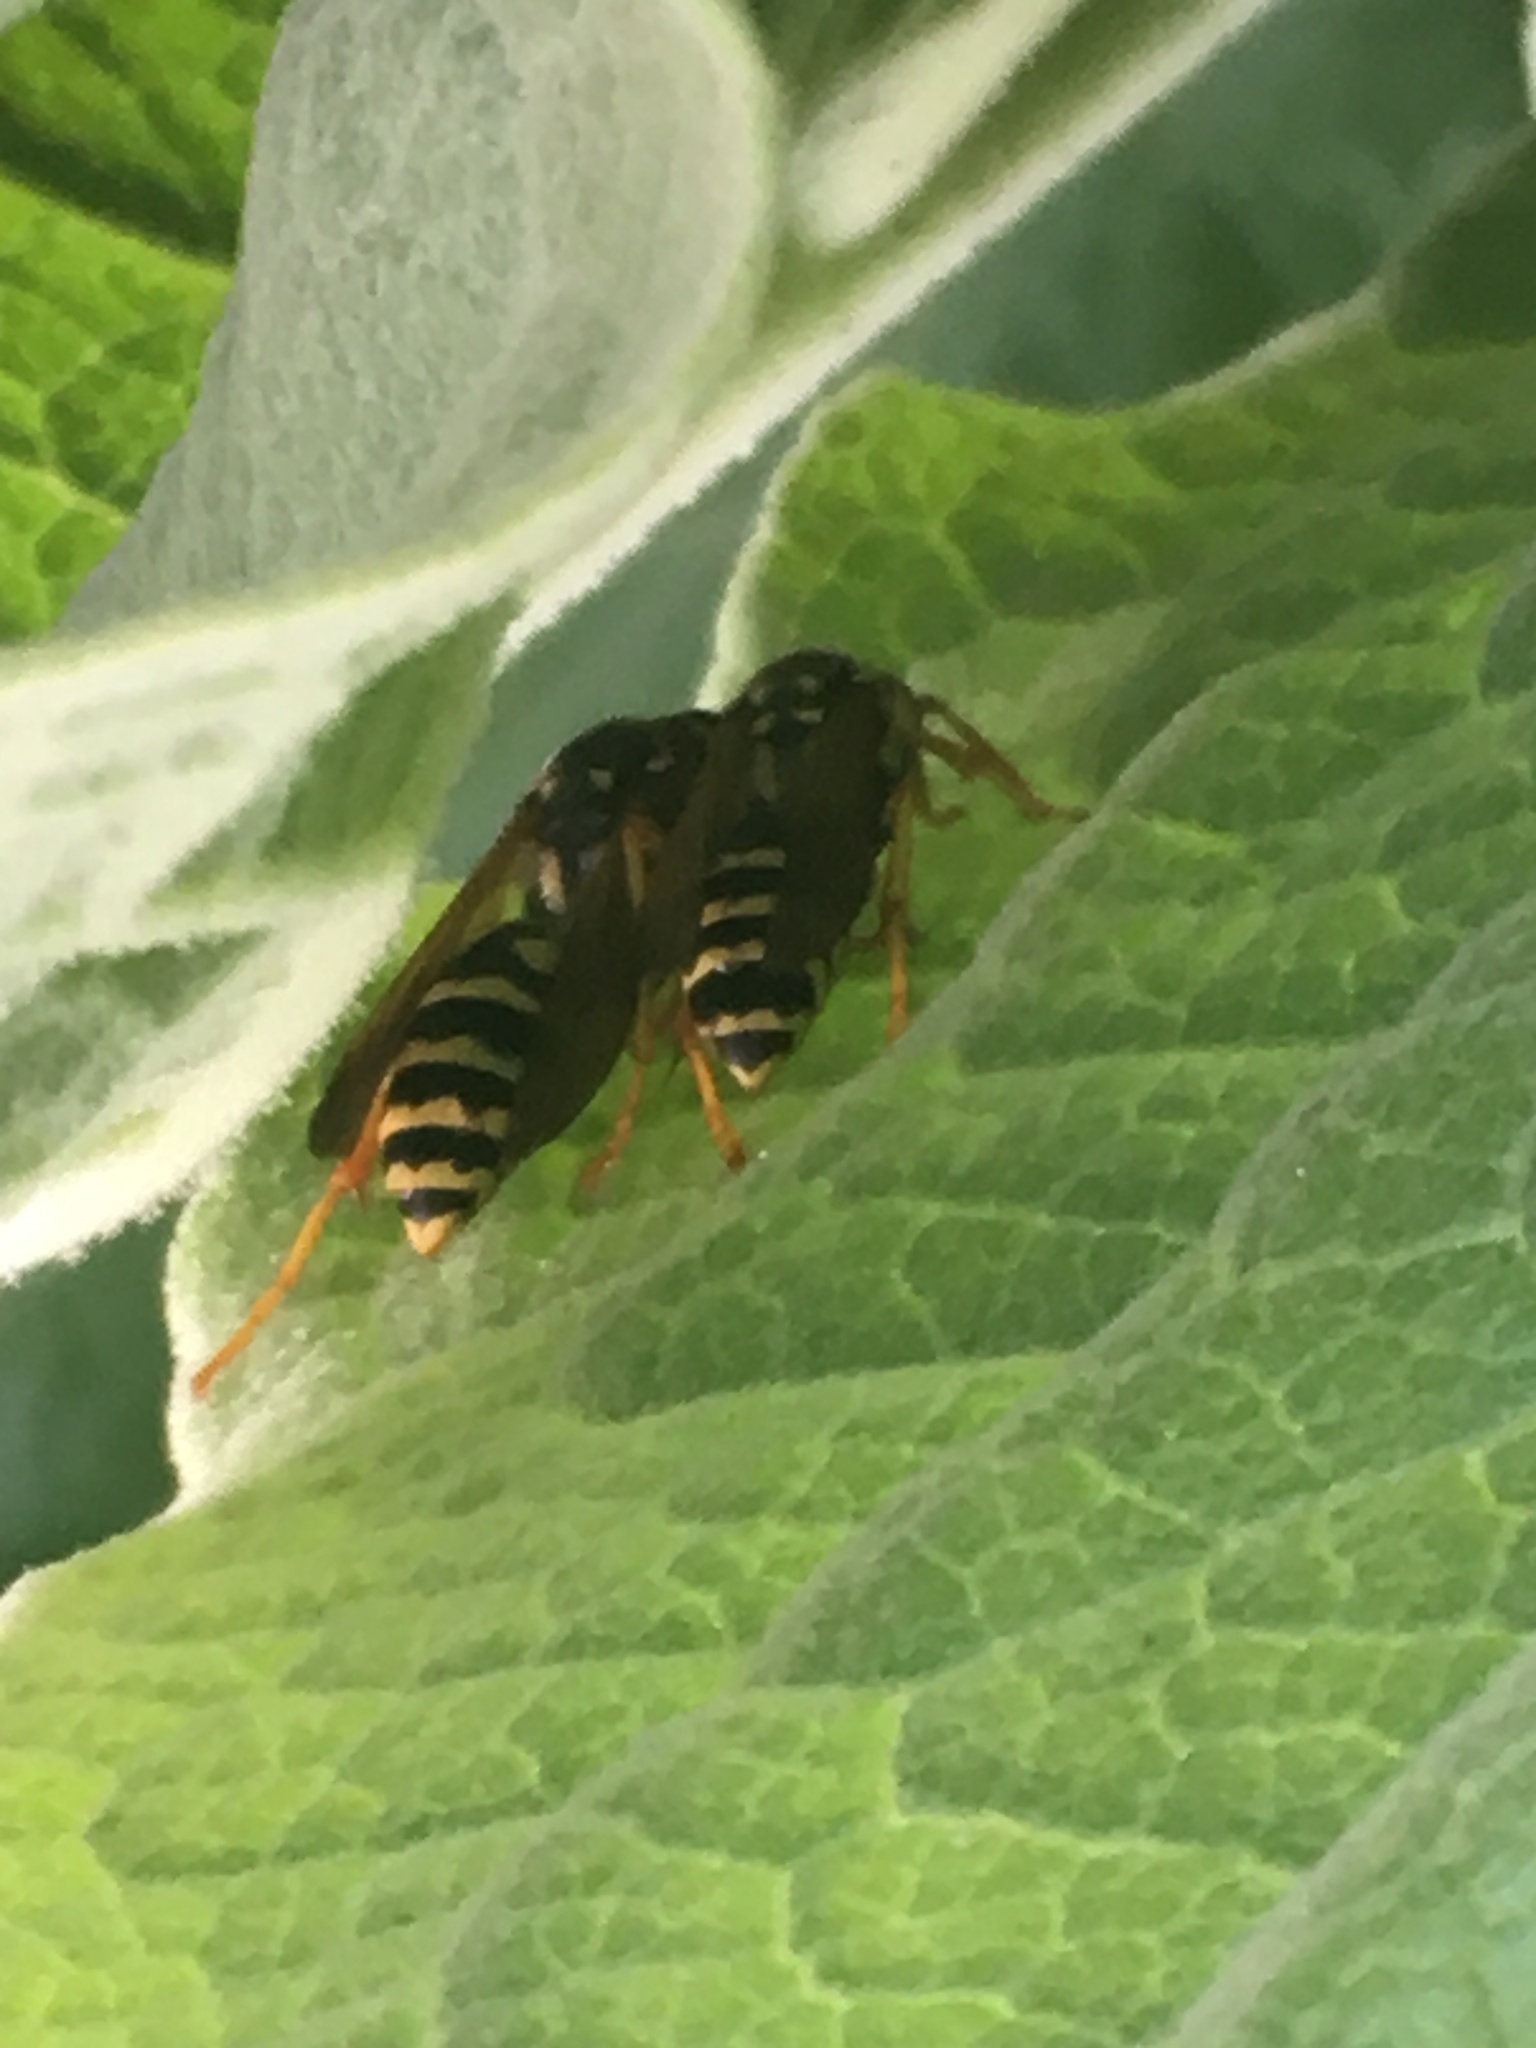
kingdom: Animalia
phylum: Arthropoda
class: Insecta
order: Hymenoptera
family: Eumenidae
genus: Polistes
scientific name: Polistes dominula
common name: Paper wasp
